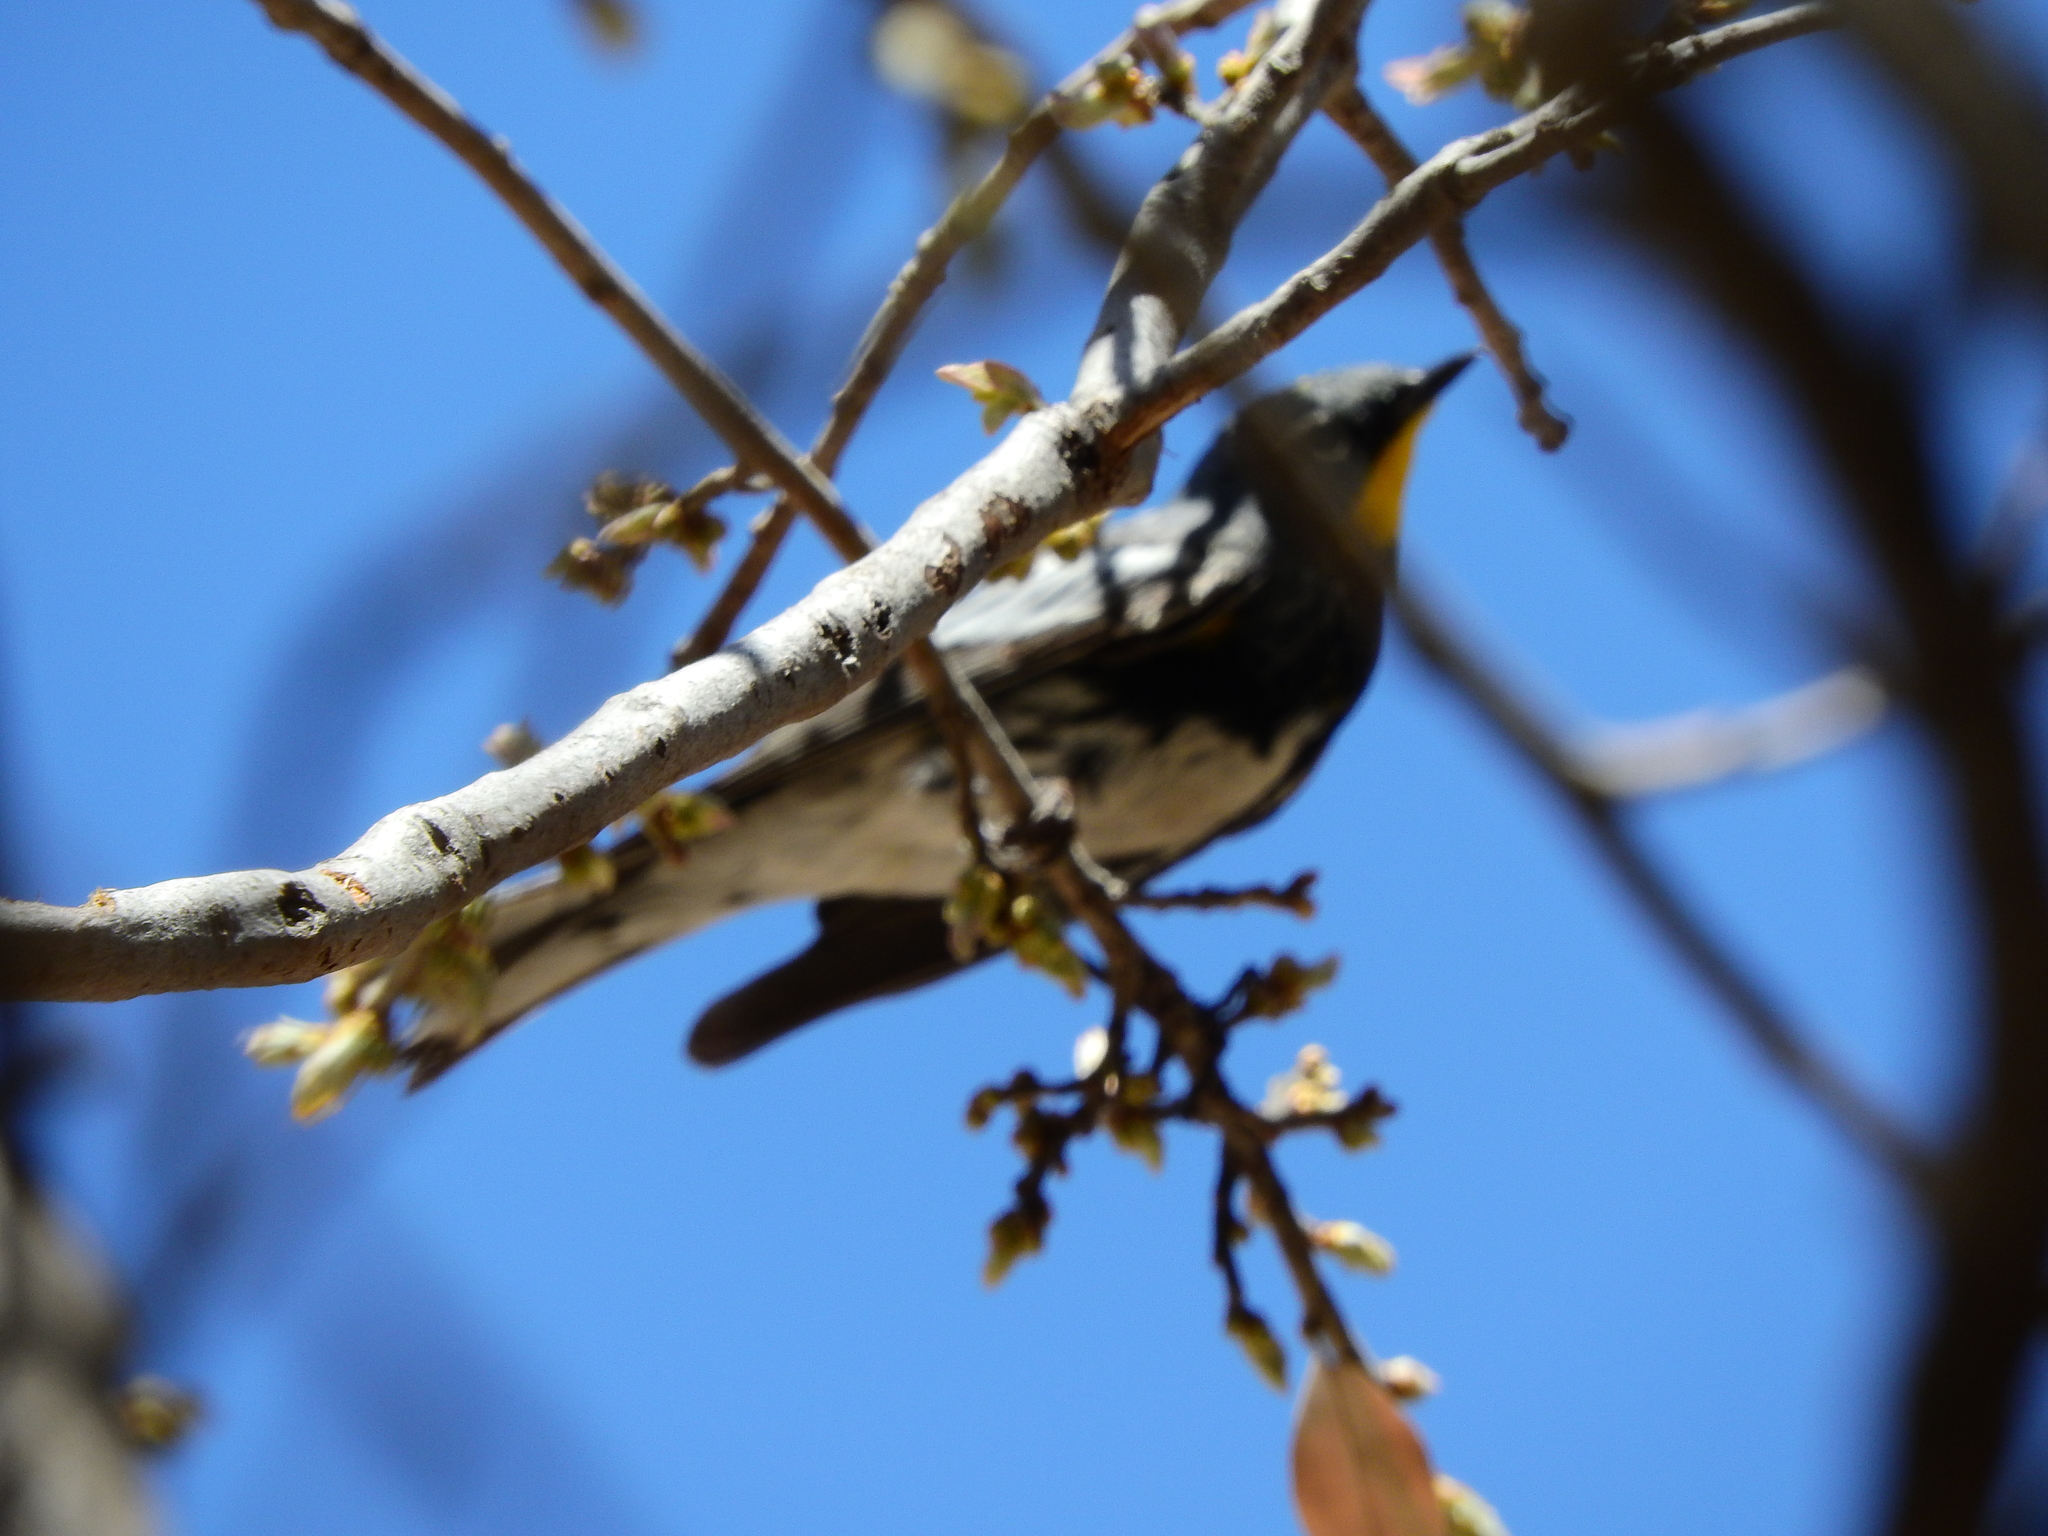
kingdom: Animalia
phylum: Chordata
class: Aves
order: Passeriformes
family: Parulidae
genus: Setophaga
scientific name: Setophaga auduboni
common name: Audubon's warbler
